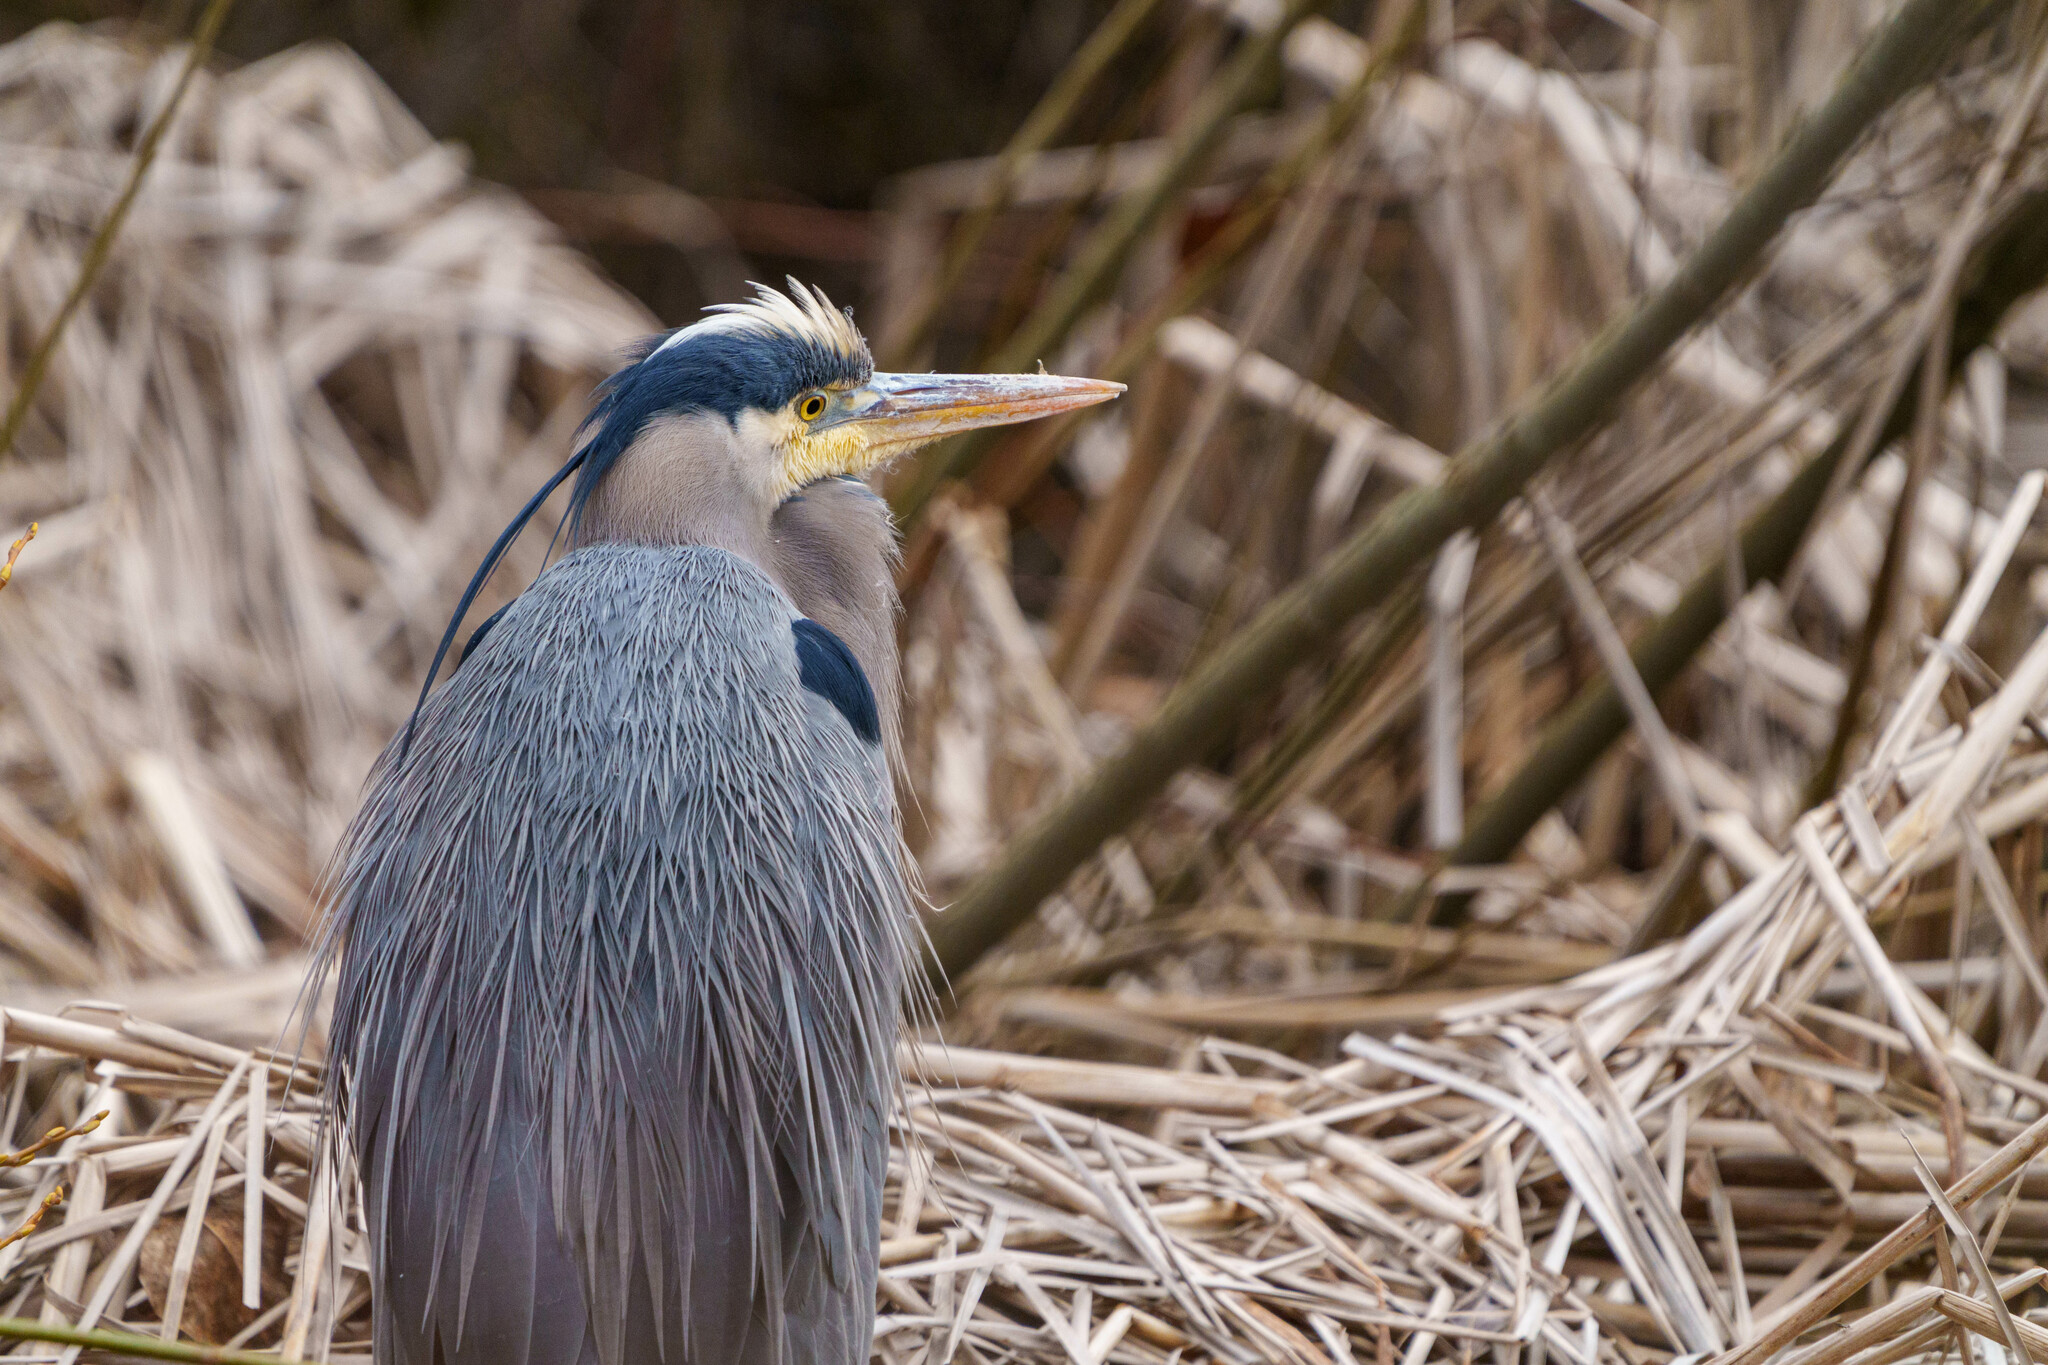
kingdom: Animalia
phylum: Chordata
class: Aves
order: Pelecaniformes
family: Ardeidae
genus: Ardea
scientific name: Ardea herodias
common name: Great blue heron
